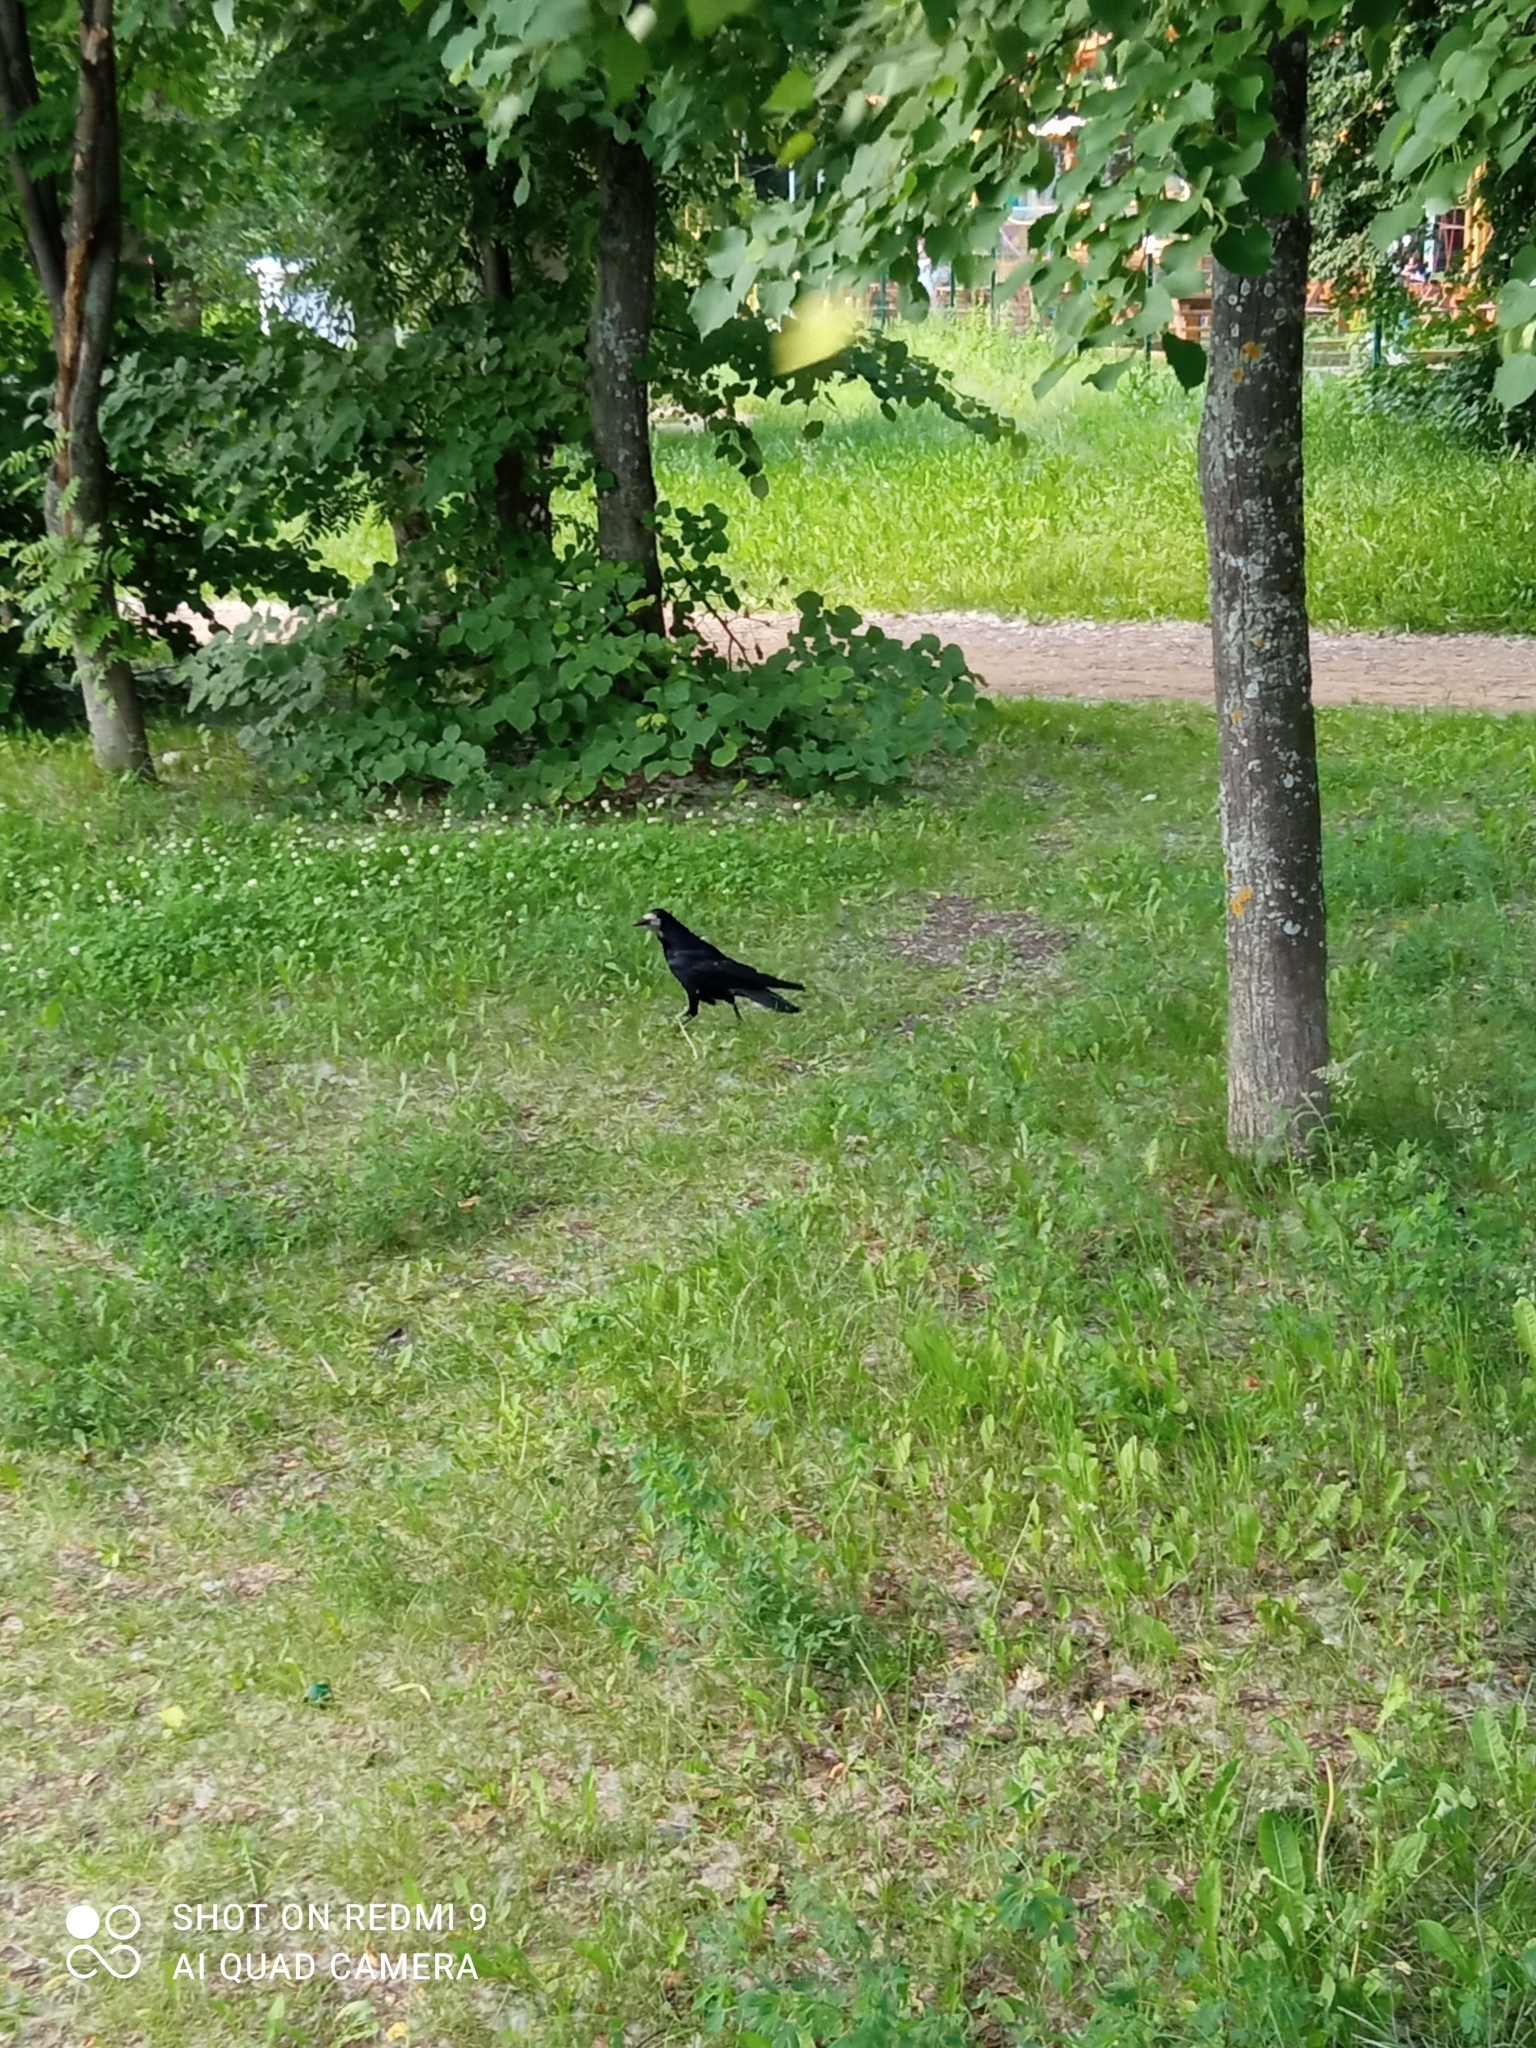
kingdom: Animalia
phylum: Chordata
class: Aves
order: Passeriformes
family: Corvidae
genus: Corvus
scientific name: Corvus frugilegus
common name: Rook
